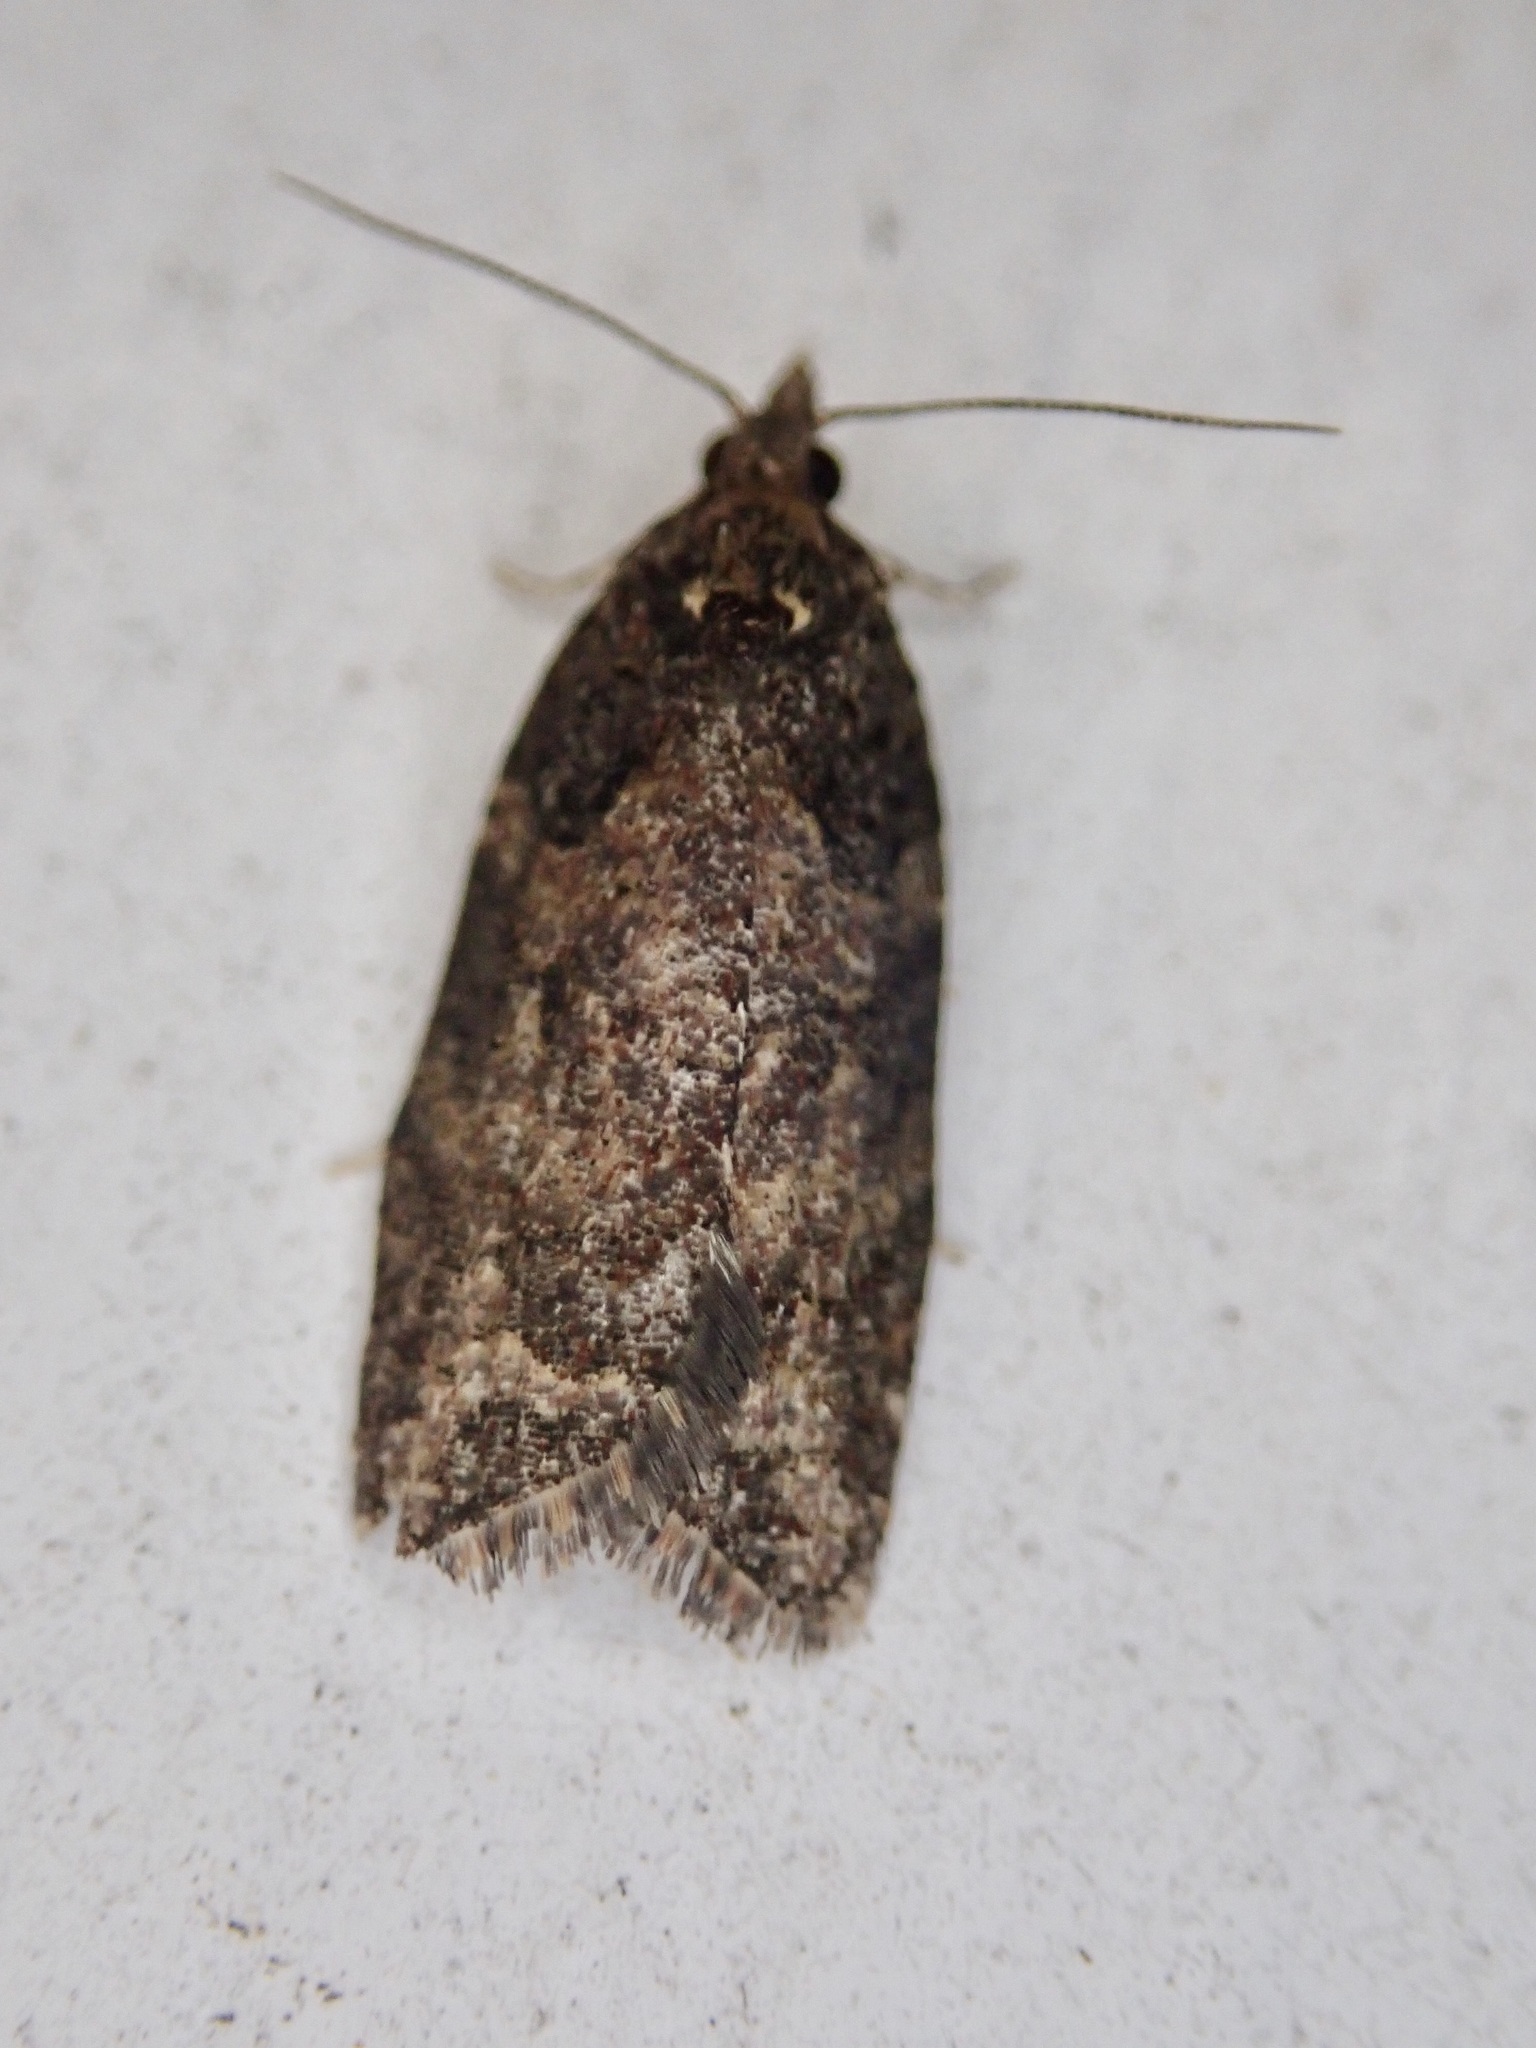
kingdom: Animalia
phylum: Arthropoda
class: Insecta
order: Lepidoptera
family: Tortricidae
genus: Capua
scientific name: Capua intractana
